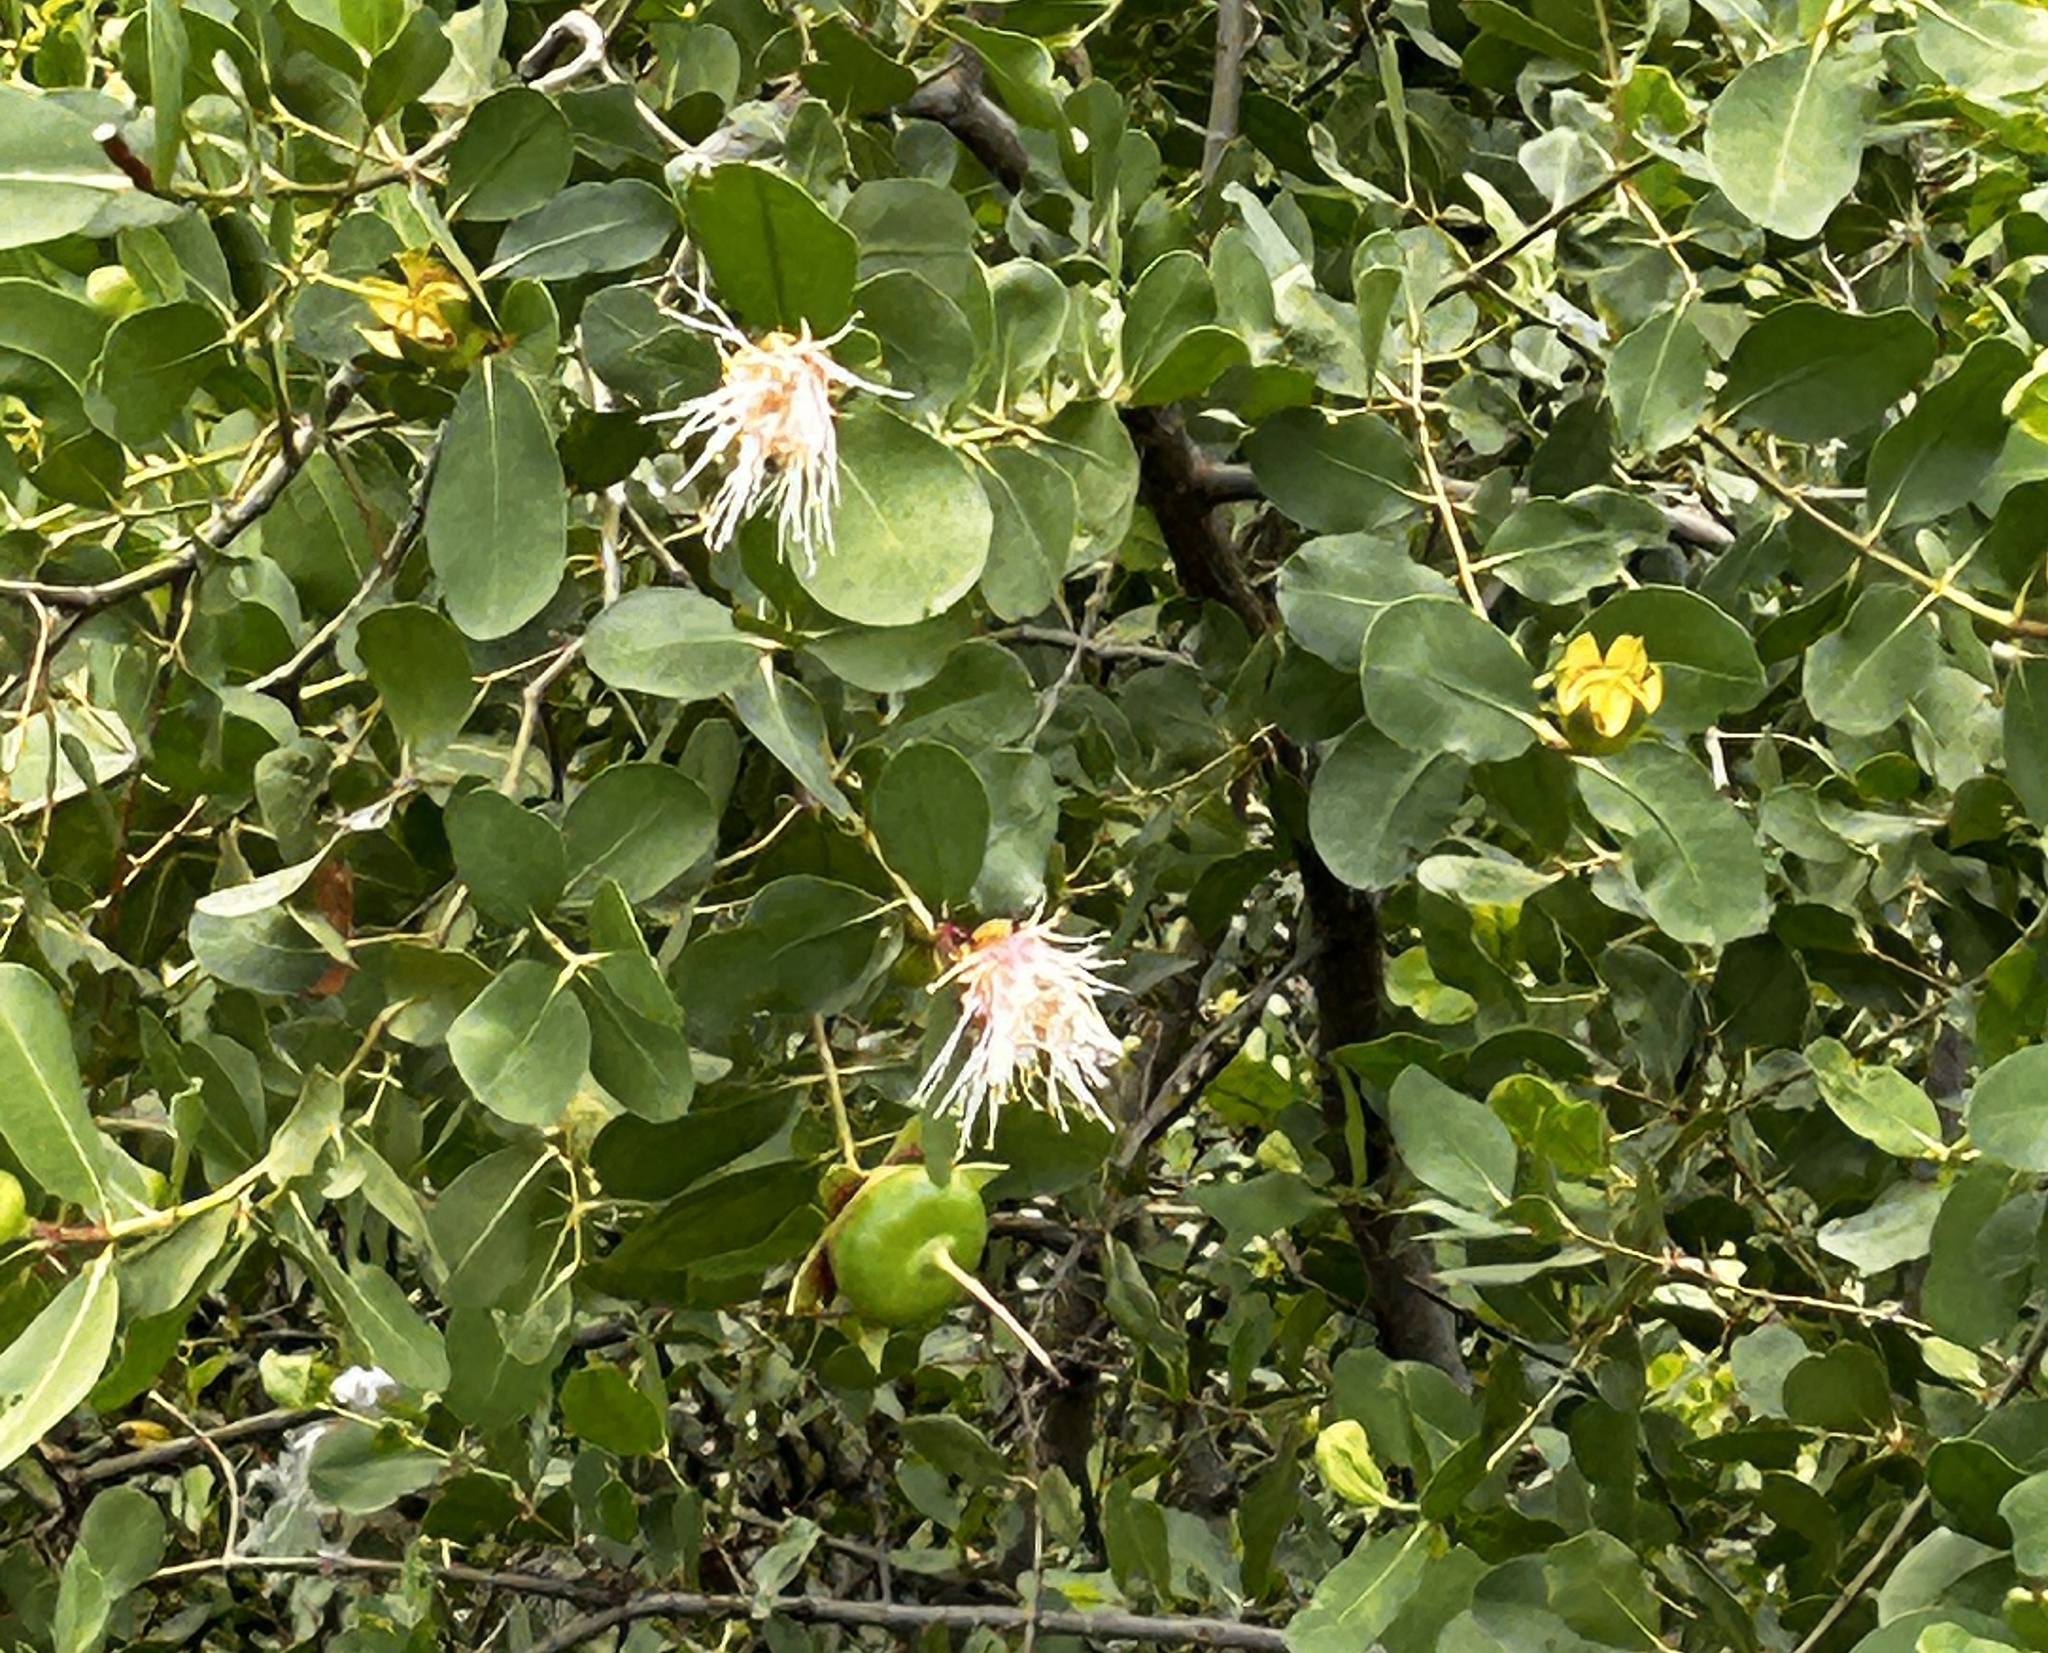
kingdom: Plantae
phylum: Tracheophyta
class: Magnoliopsida
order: Myrtales
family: Lythraceae
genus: Sonneratia
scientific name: Sonneratia alba
